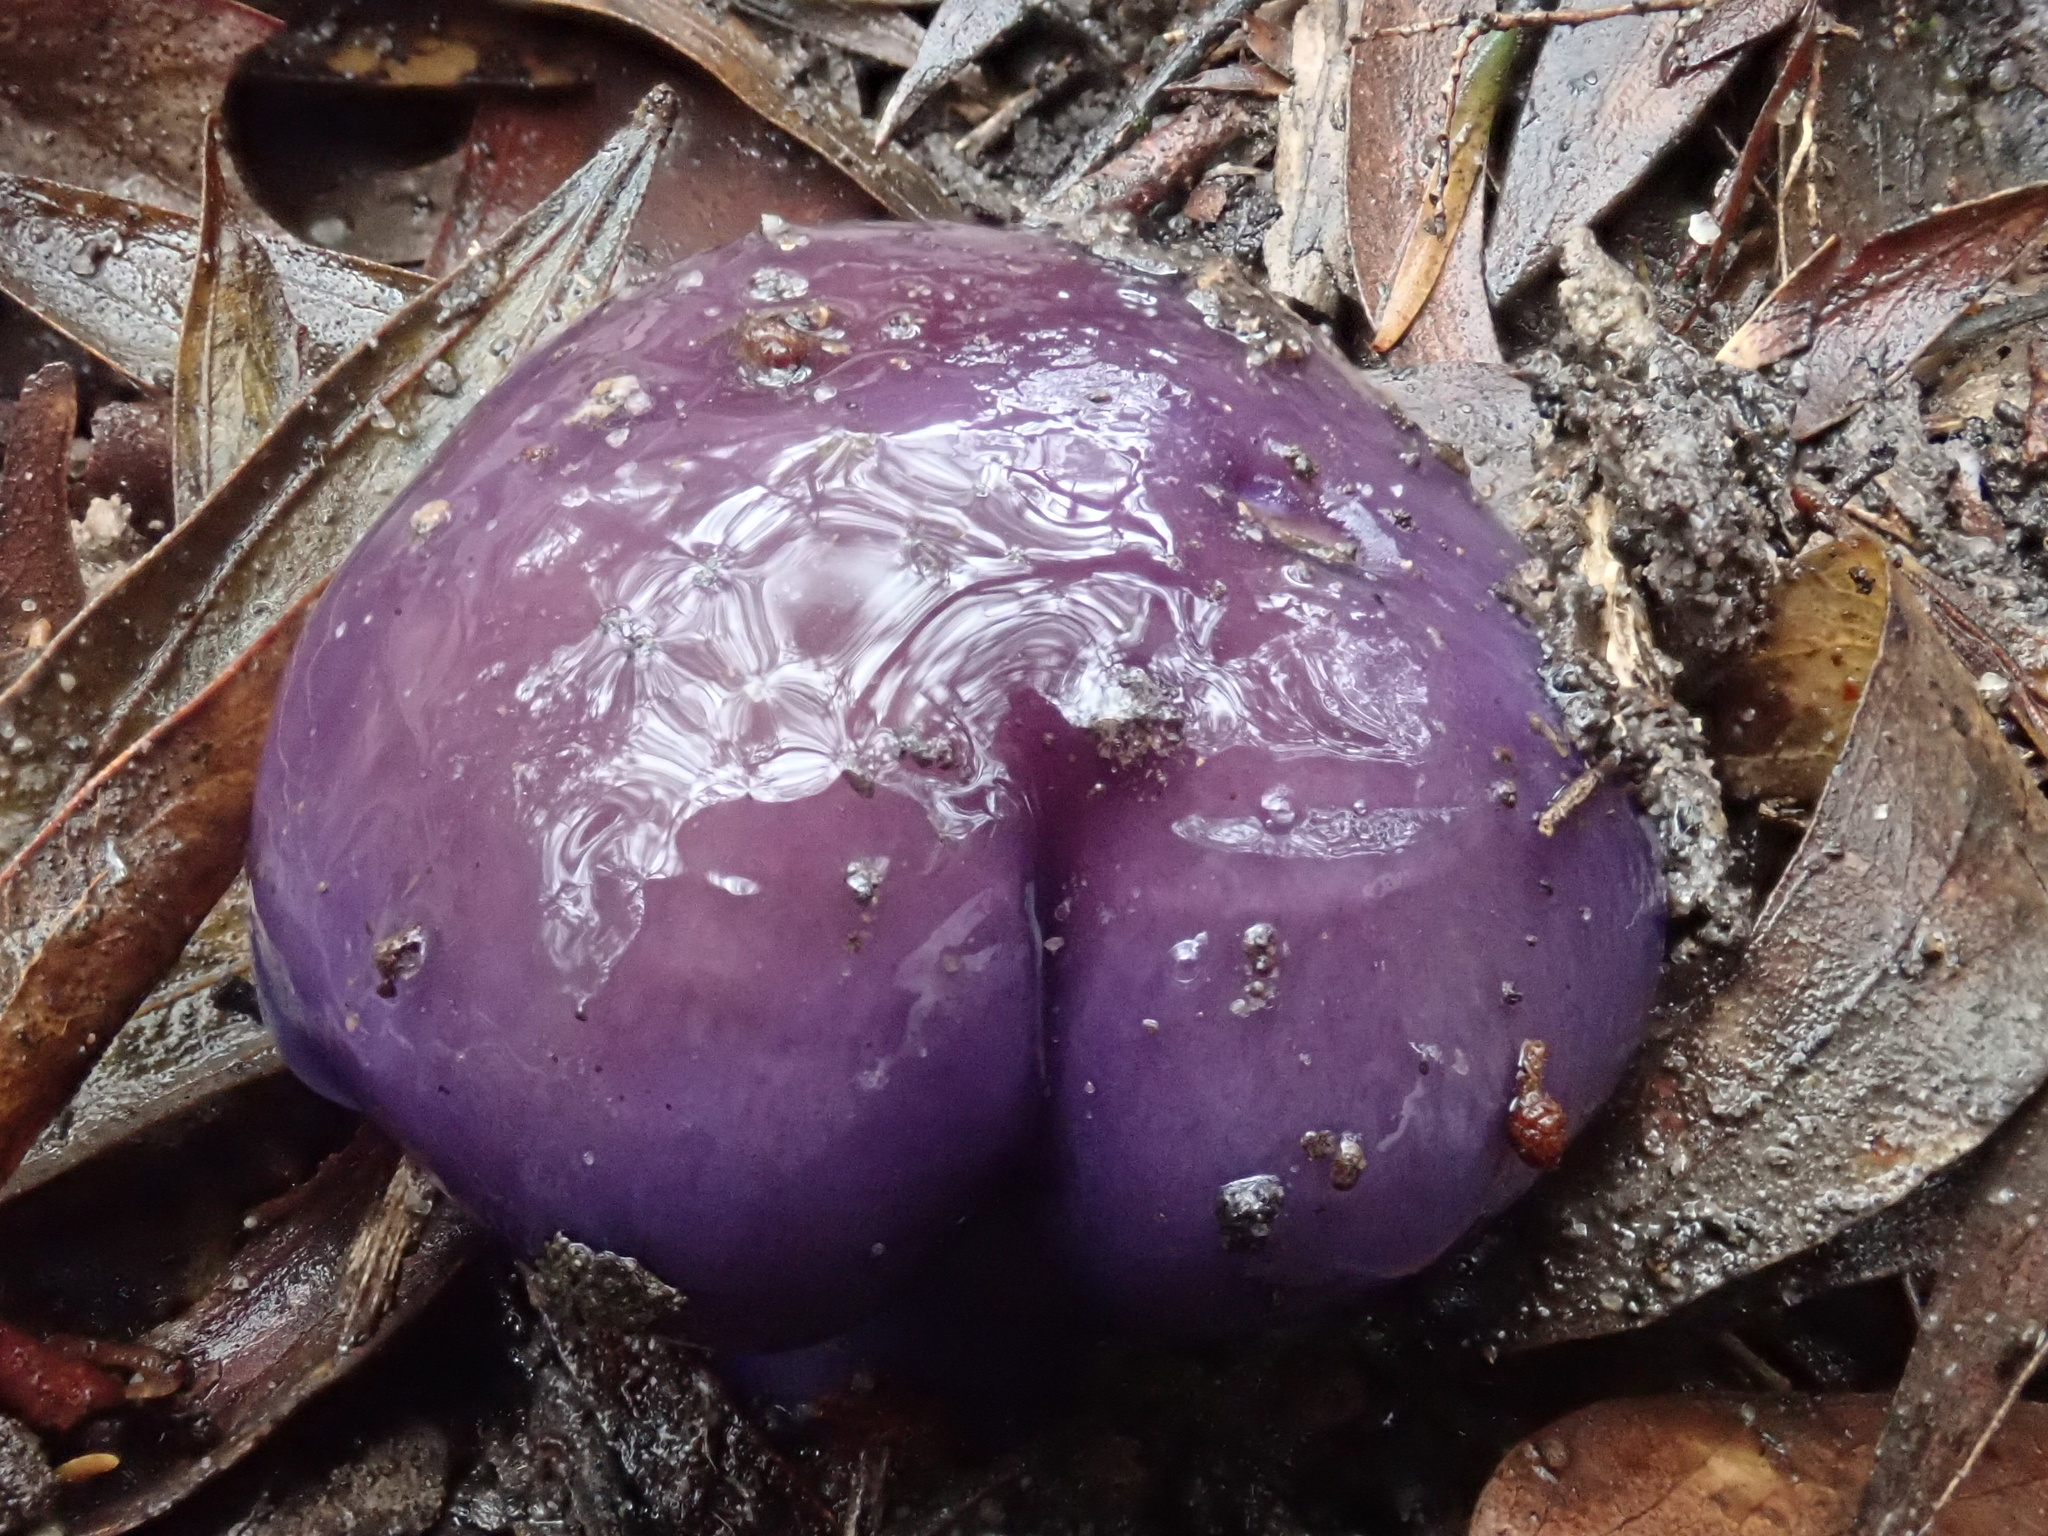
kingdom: Fungi
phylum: Basidiomycota
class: Agaricomycetes
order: Agaricales
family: Cortinariaceae
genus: Cortinarius
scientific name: Cortinarius archeri
